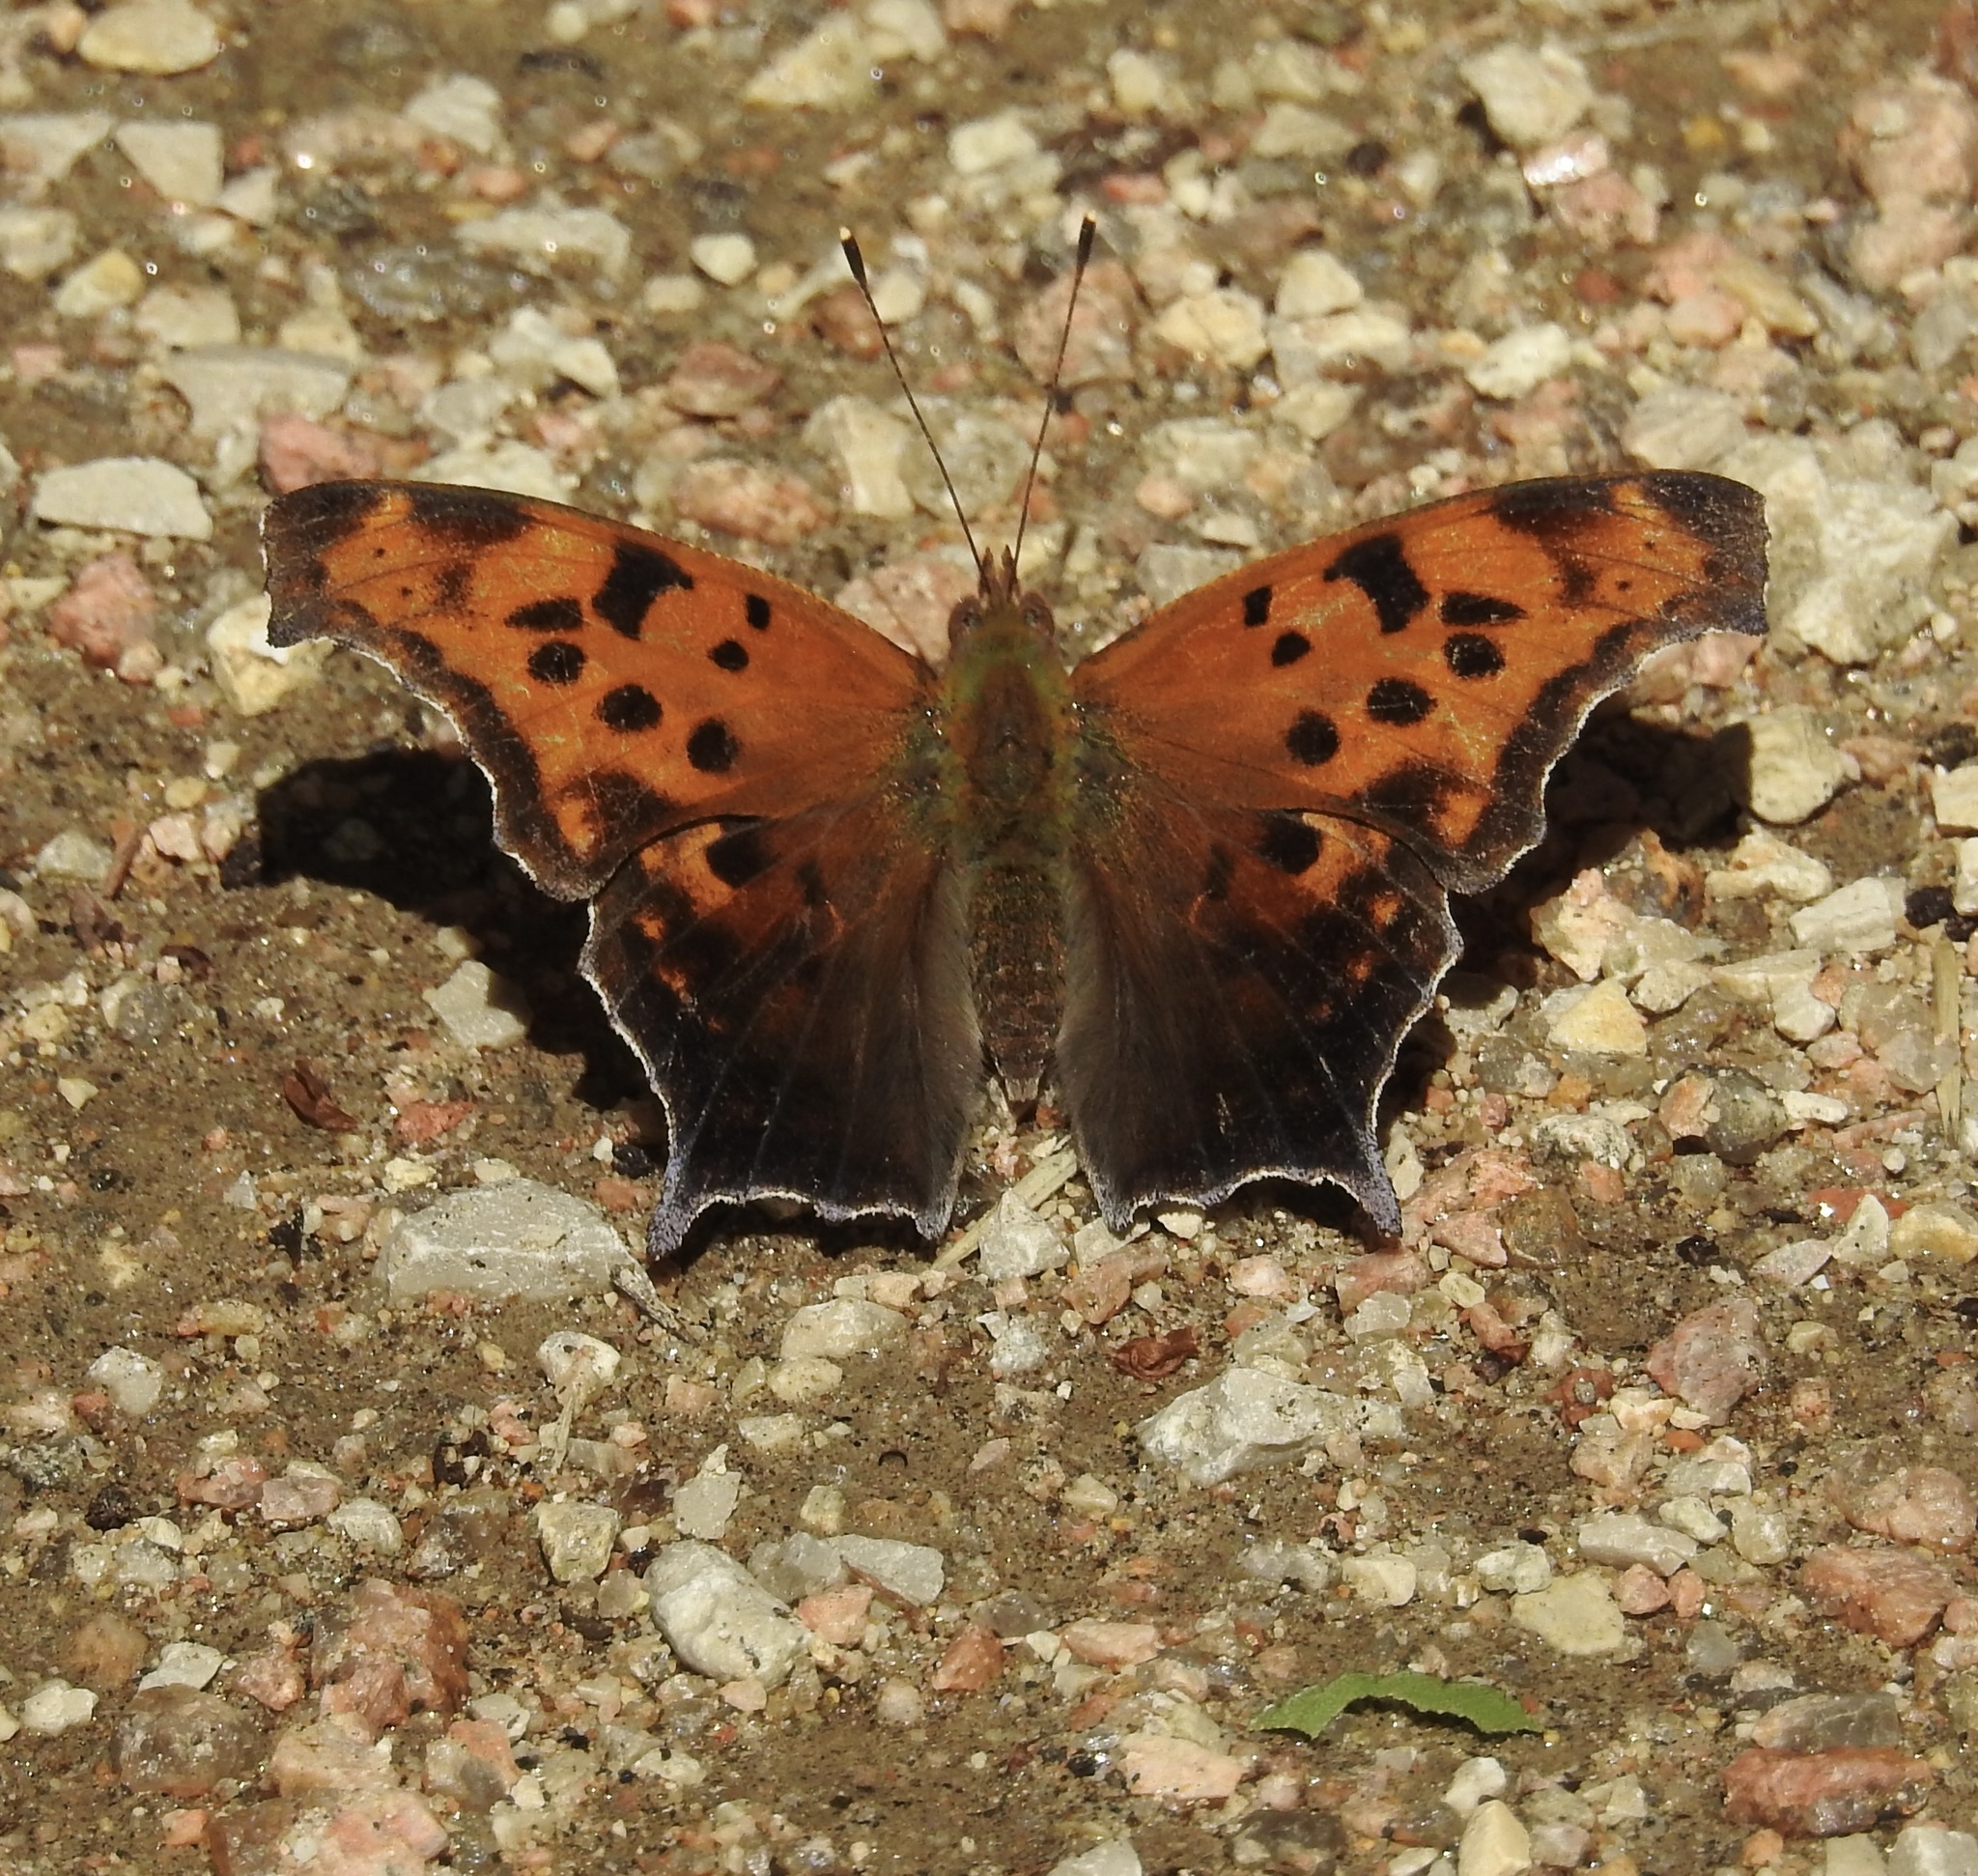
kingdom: Animalia
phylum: Arthropoda
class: Insecta
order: Lepidoptera
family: Nymphalidae
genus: Polygonia
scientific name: Polygonia interrogationis
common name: Question mark
